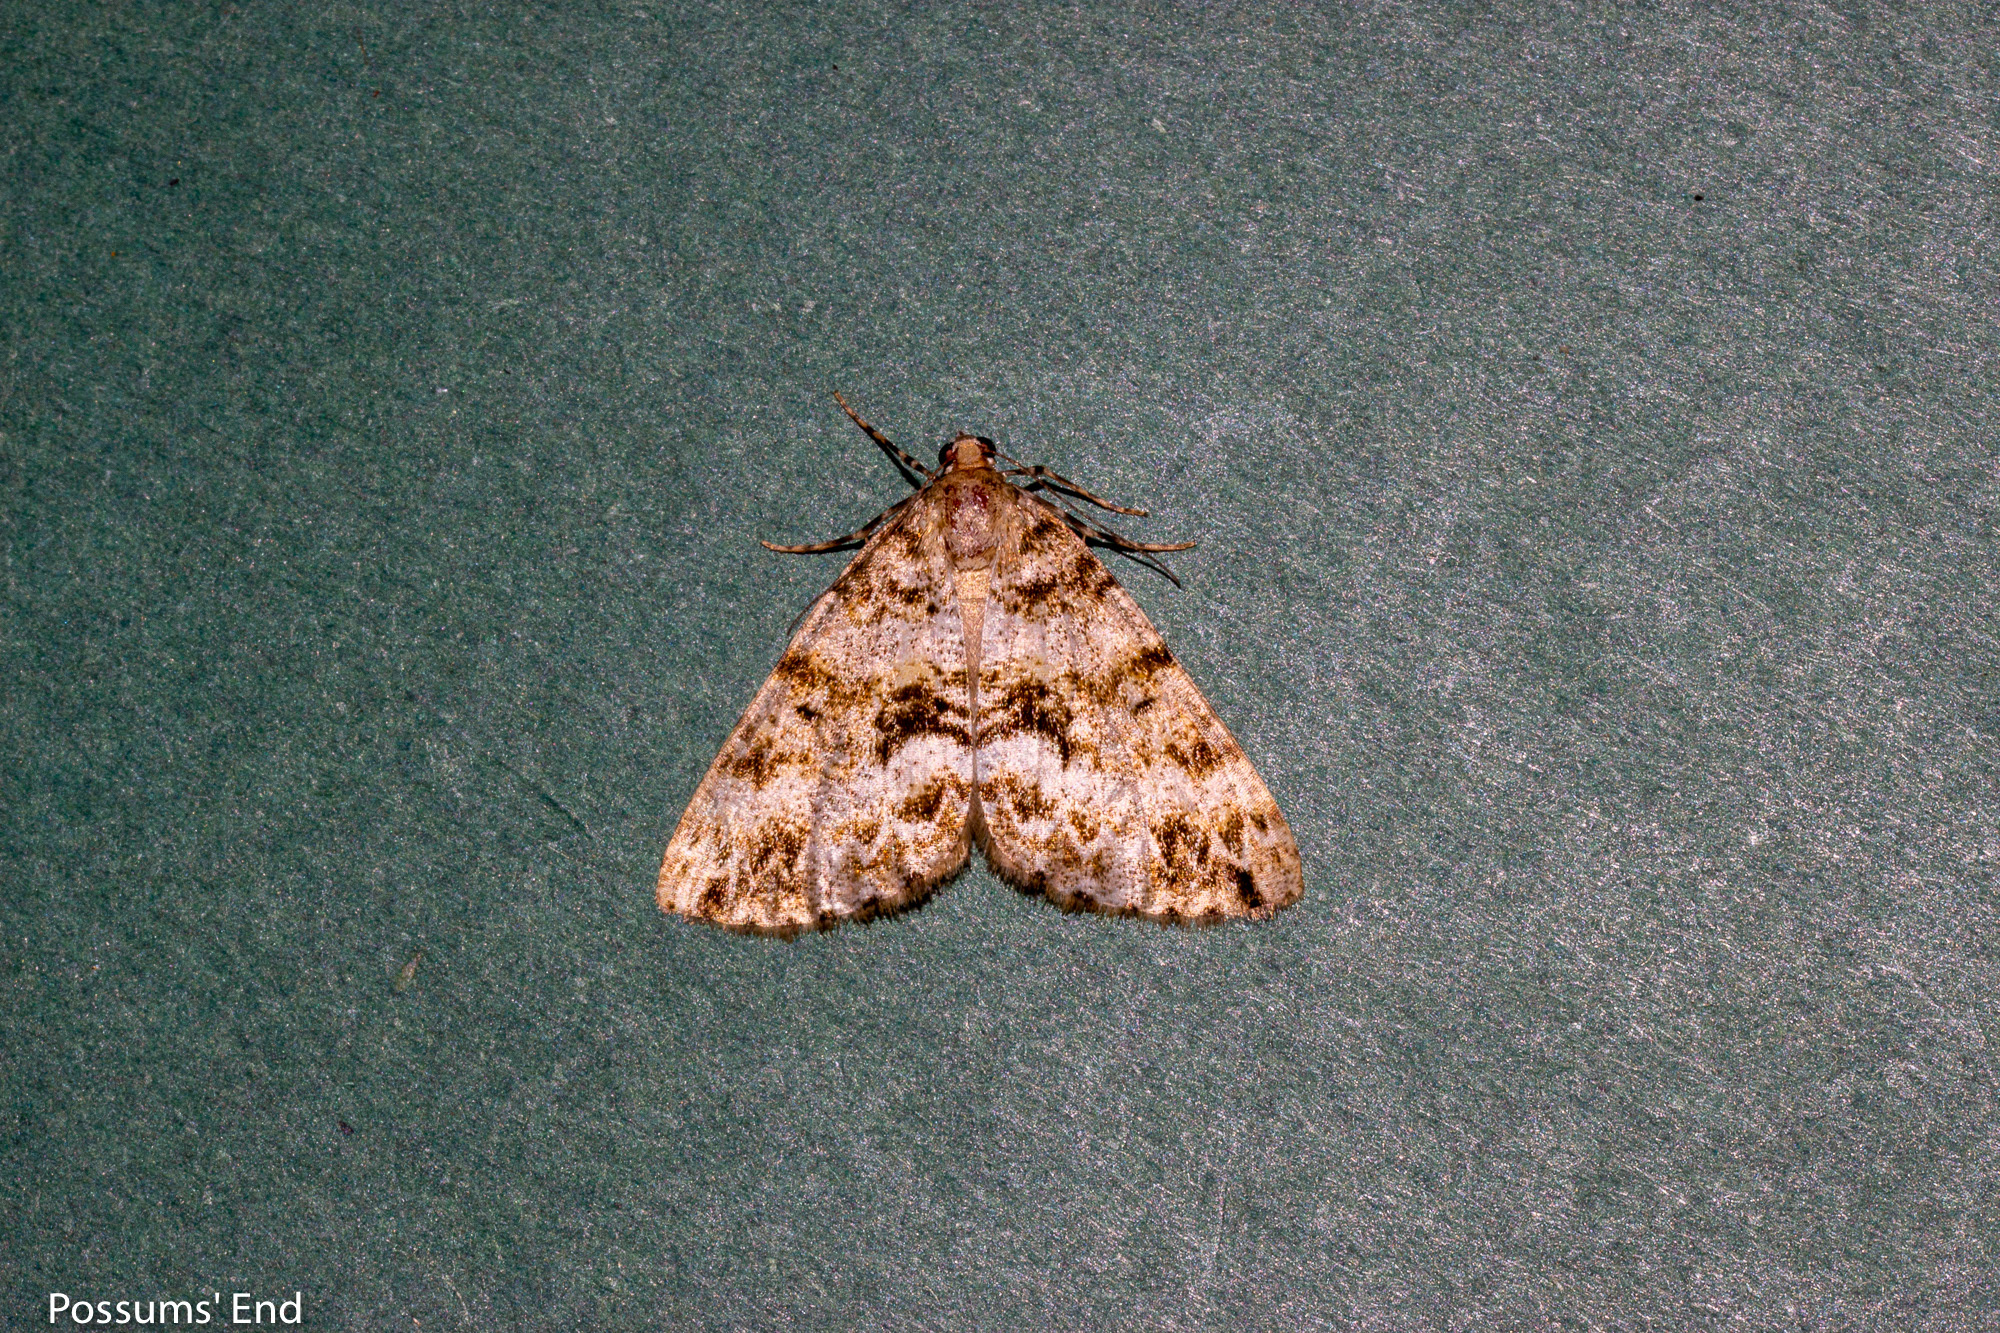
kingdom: Animalia
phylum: Arthropoda
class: Insecta
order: Lepidoptera
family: Geometridae
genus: Pseudocoremia
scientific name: Pseudocoremia lactiflua
